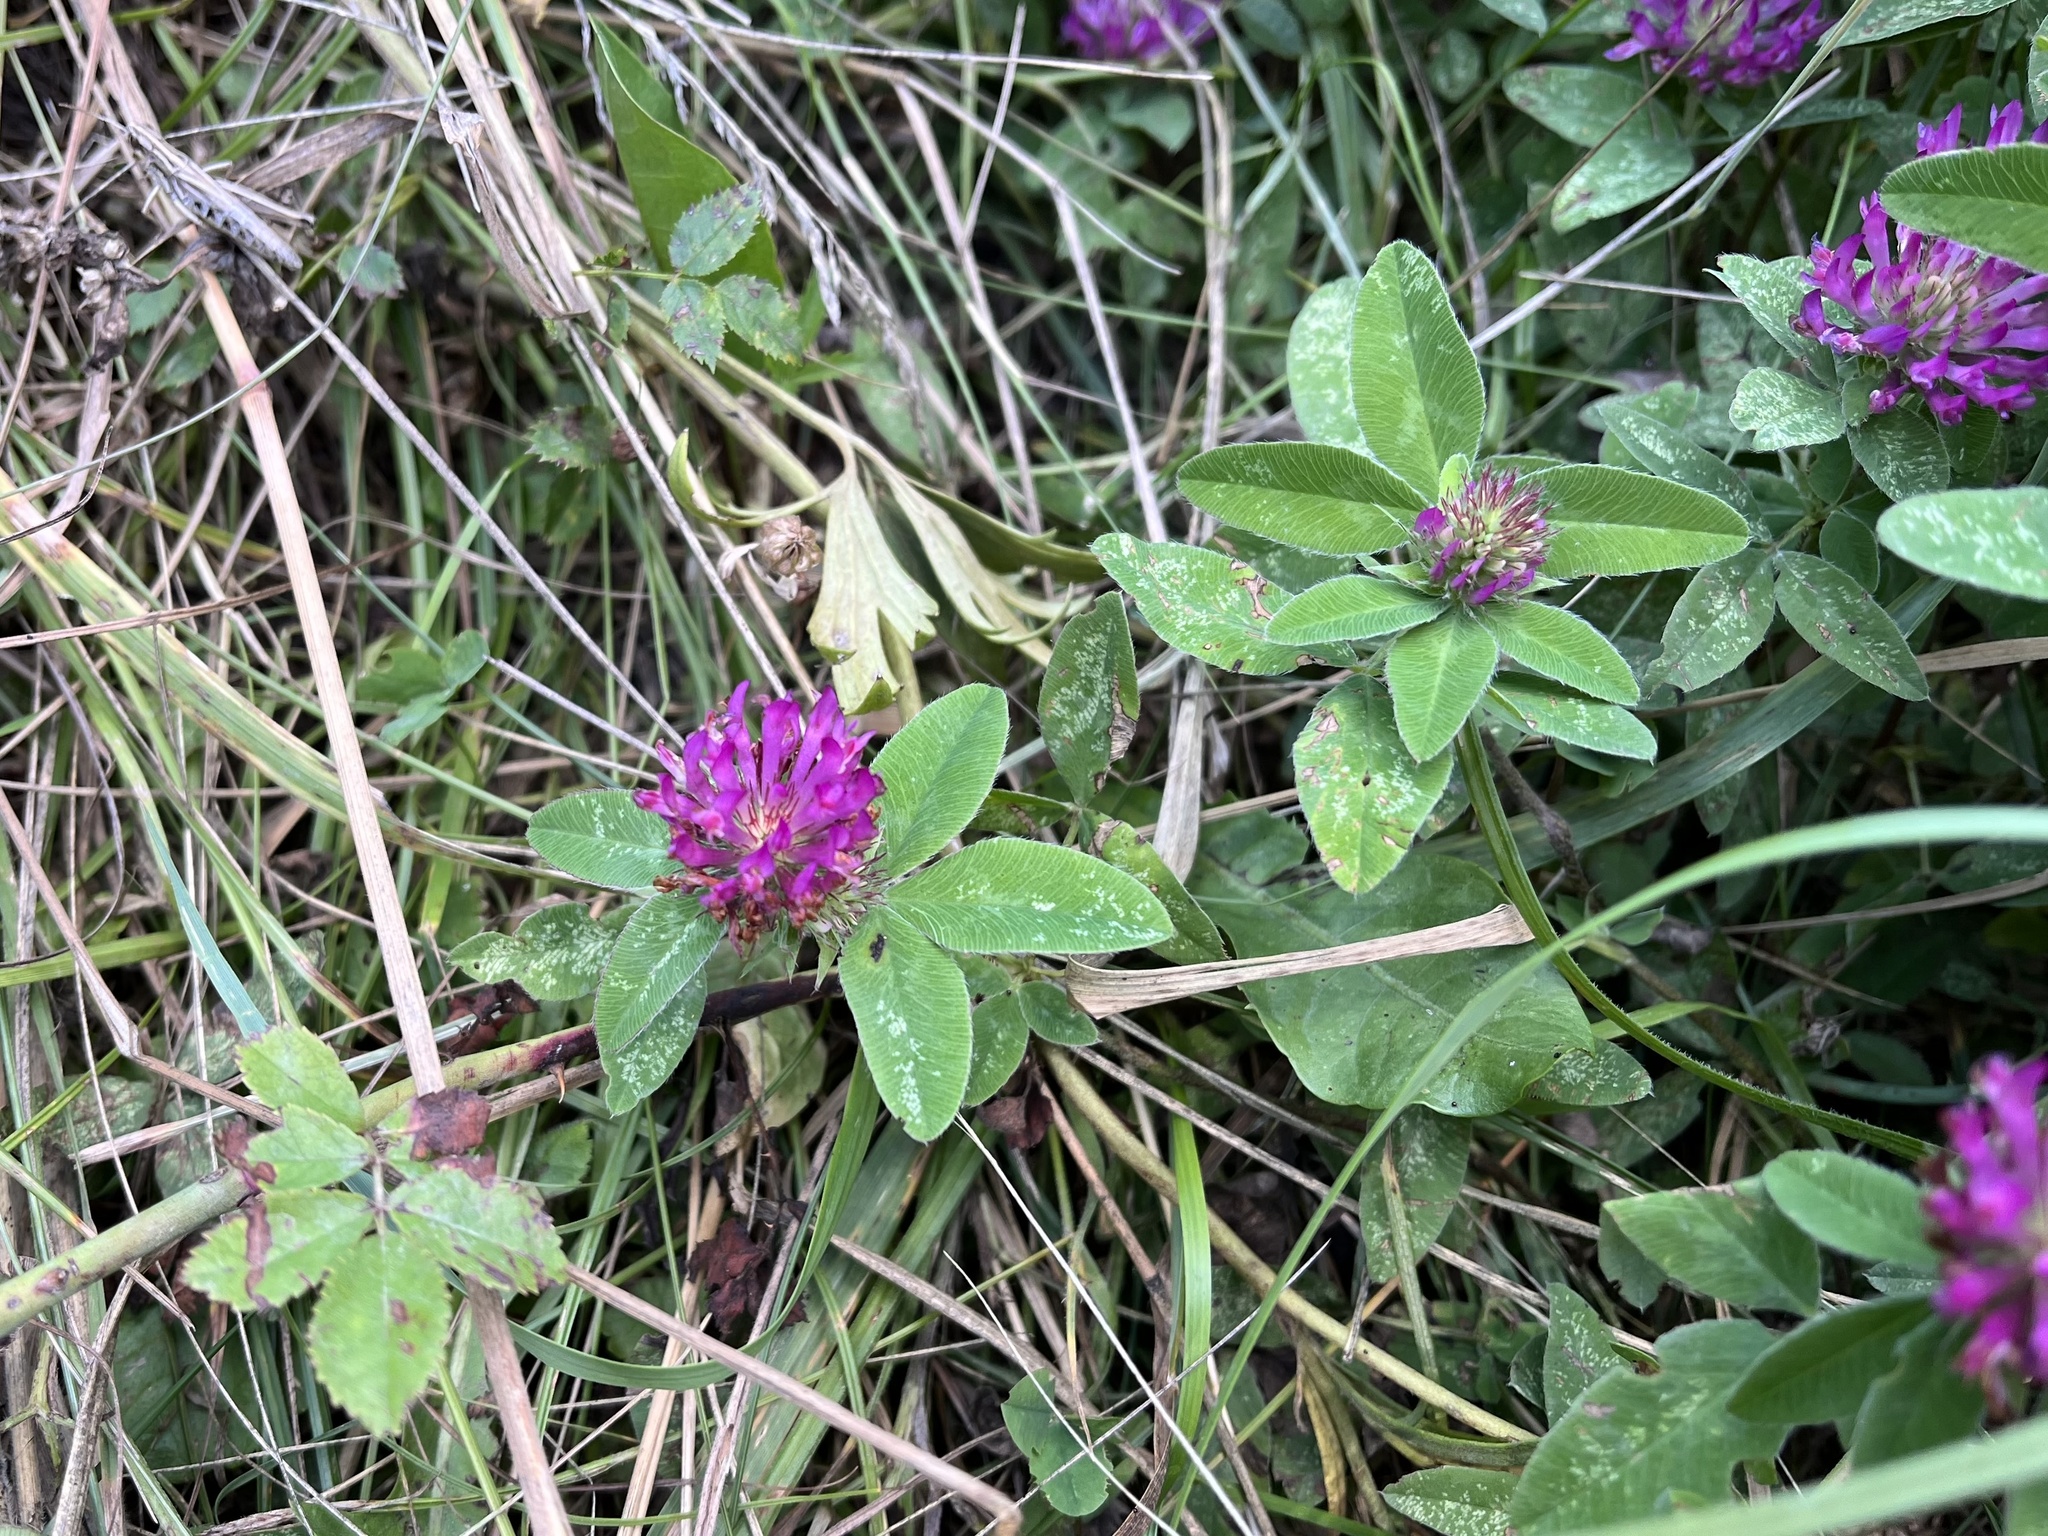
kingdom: Plantae
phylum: Tracheophyta
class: Magnoliopsida
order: Fabales
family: Fabaceae
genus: Trifolium
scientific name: Trifolium medium
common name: Zigzag clover
